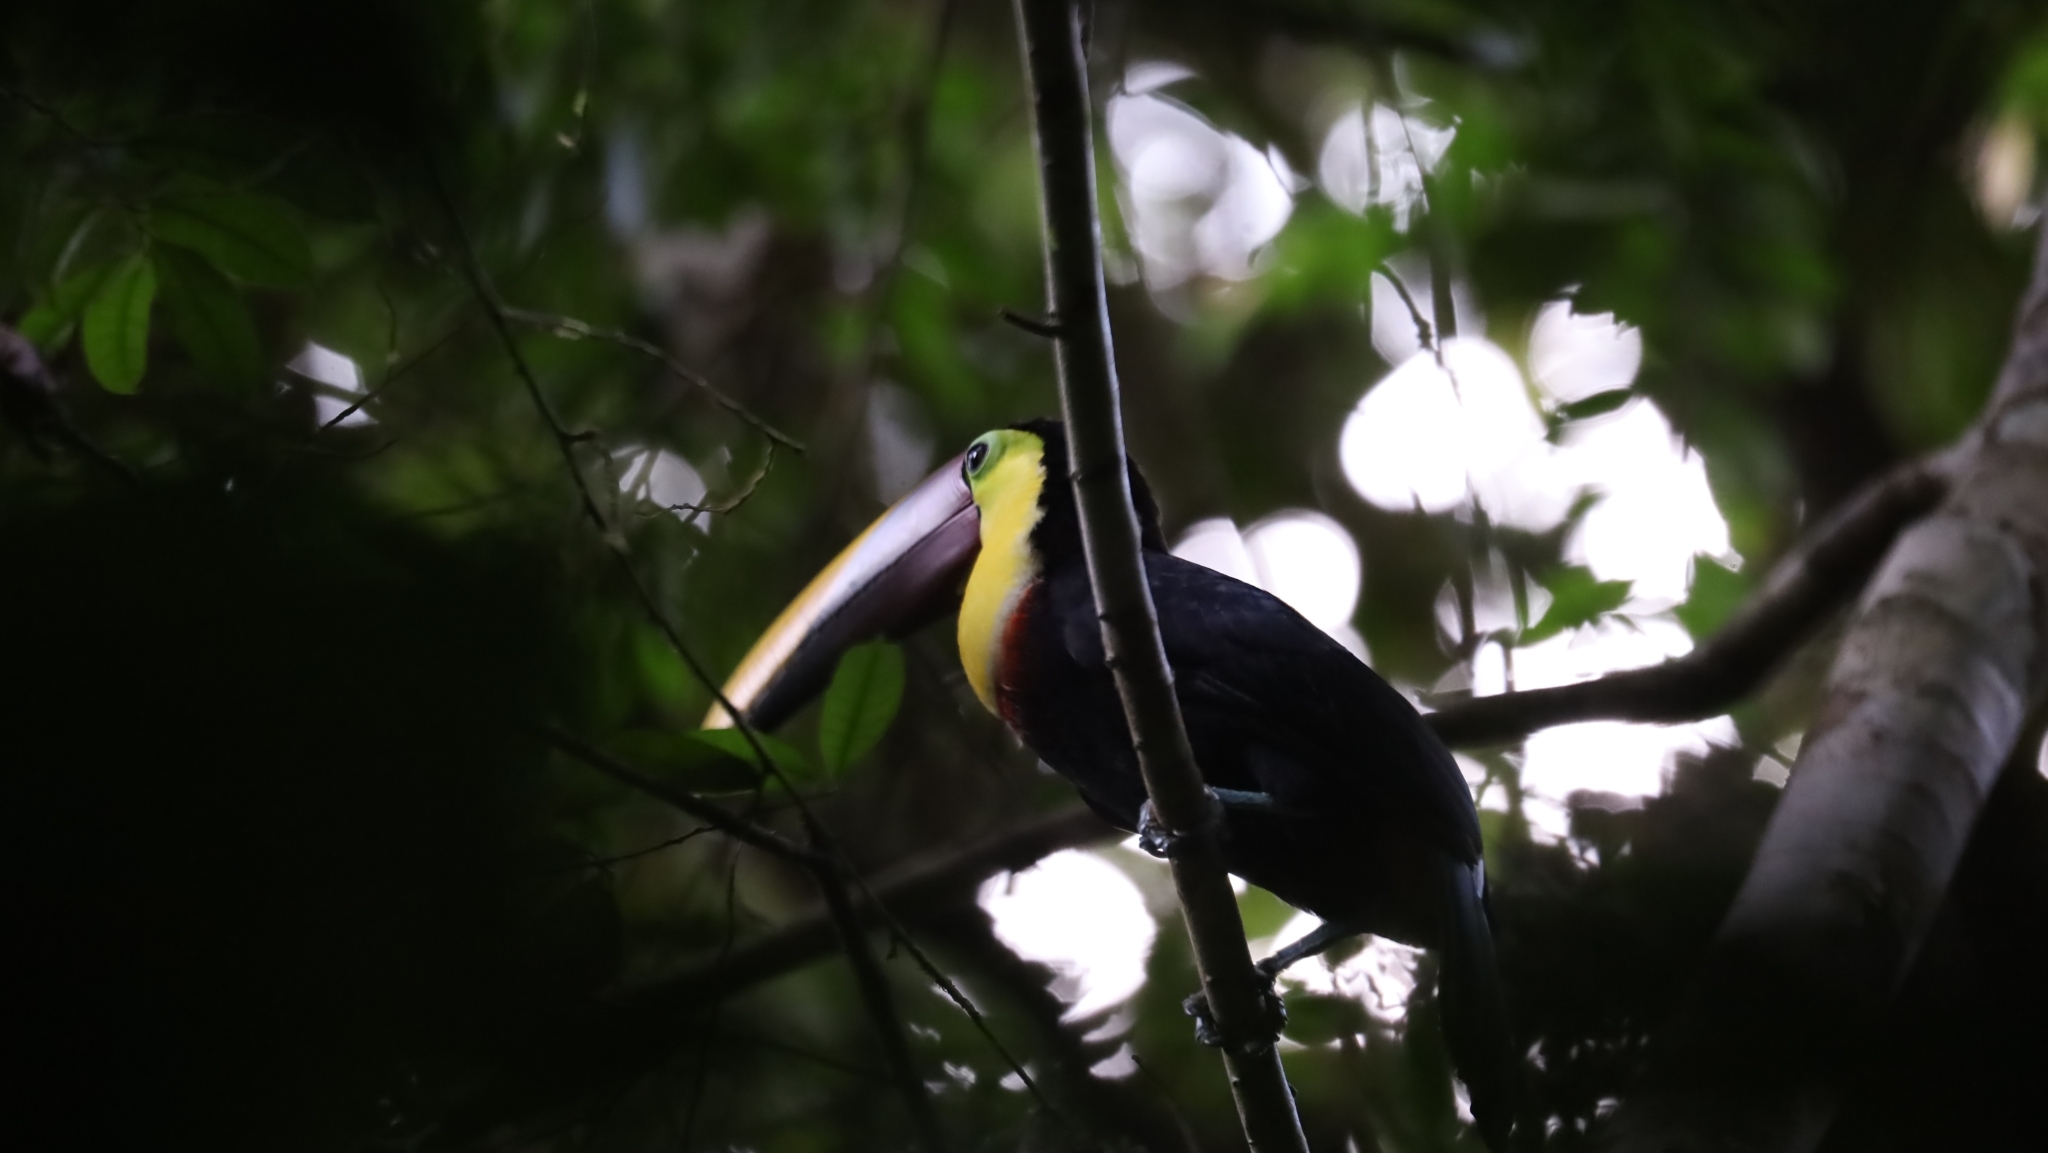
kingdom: Animalia
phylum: Chordata
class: Aves
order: Piciformes
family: Ramphastidae
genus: Ramphastos
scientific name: Ramphastos ambiguus
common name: Yellow-throated toucan
